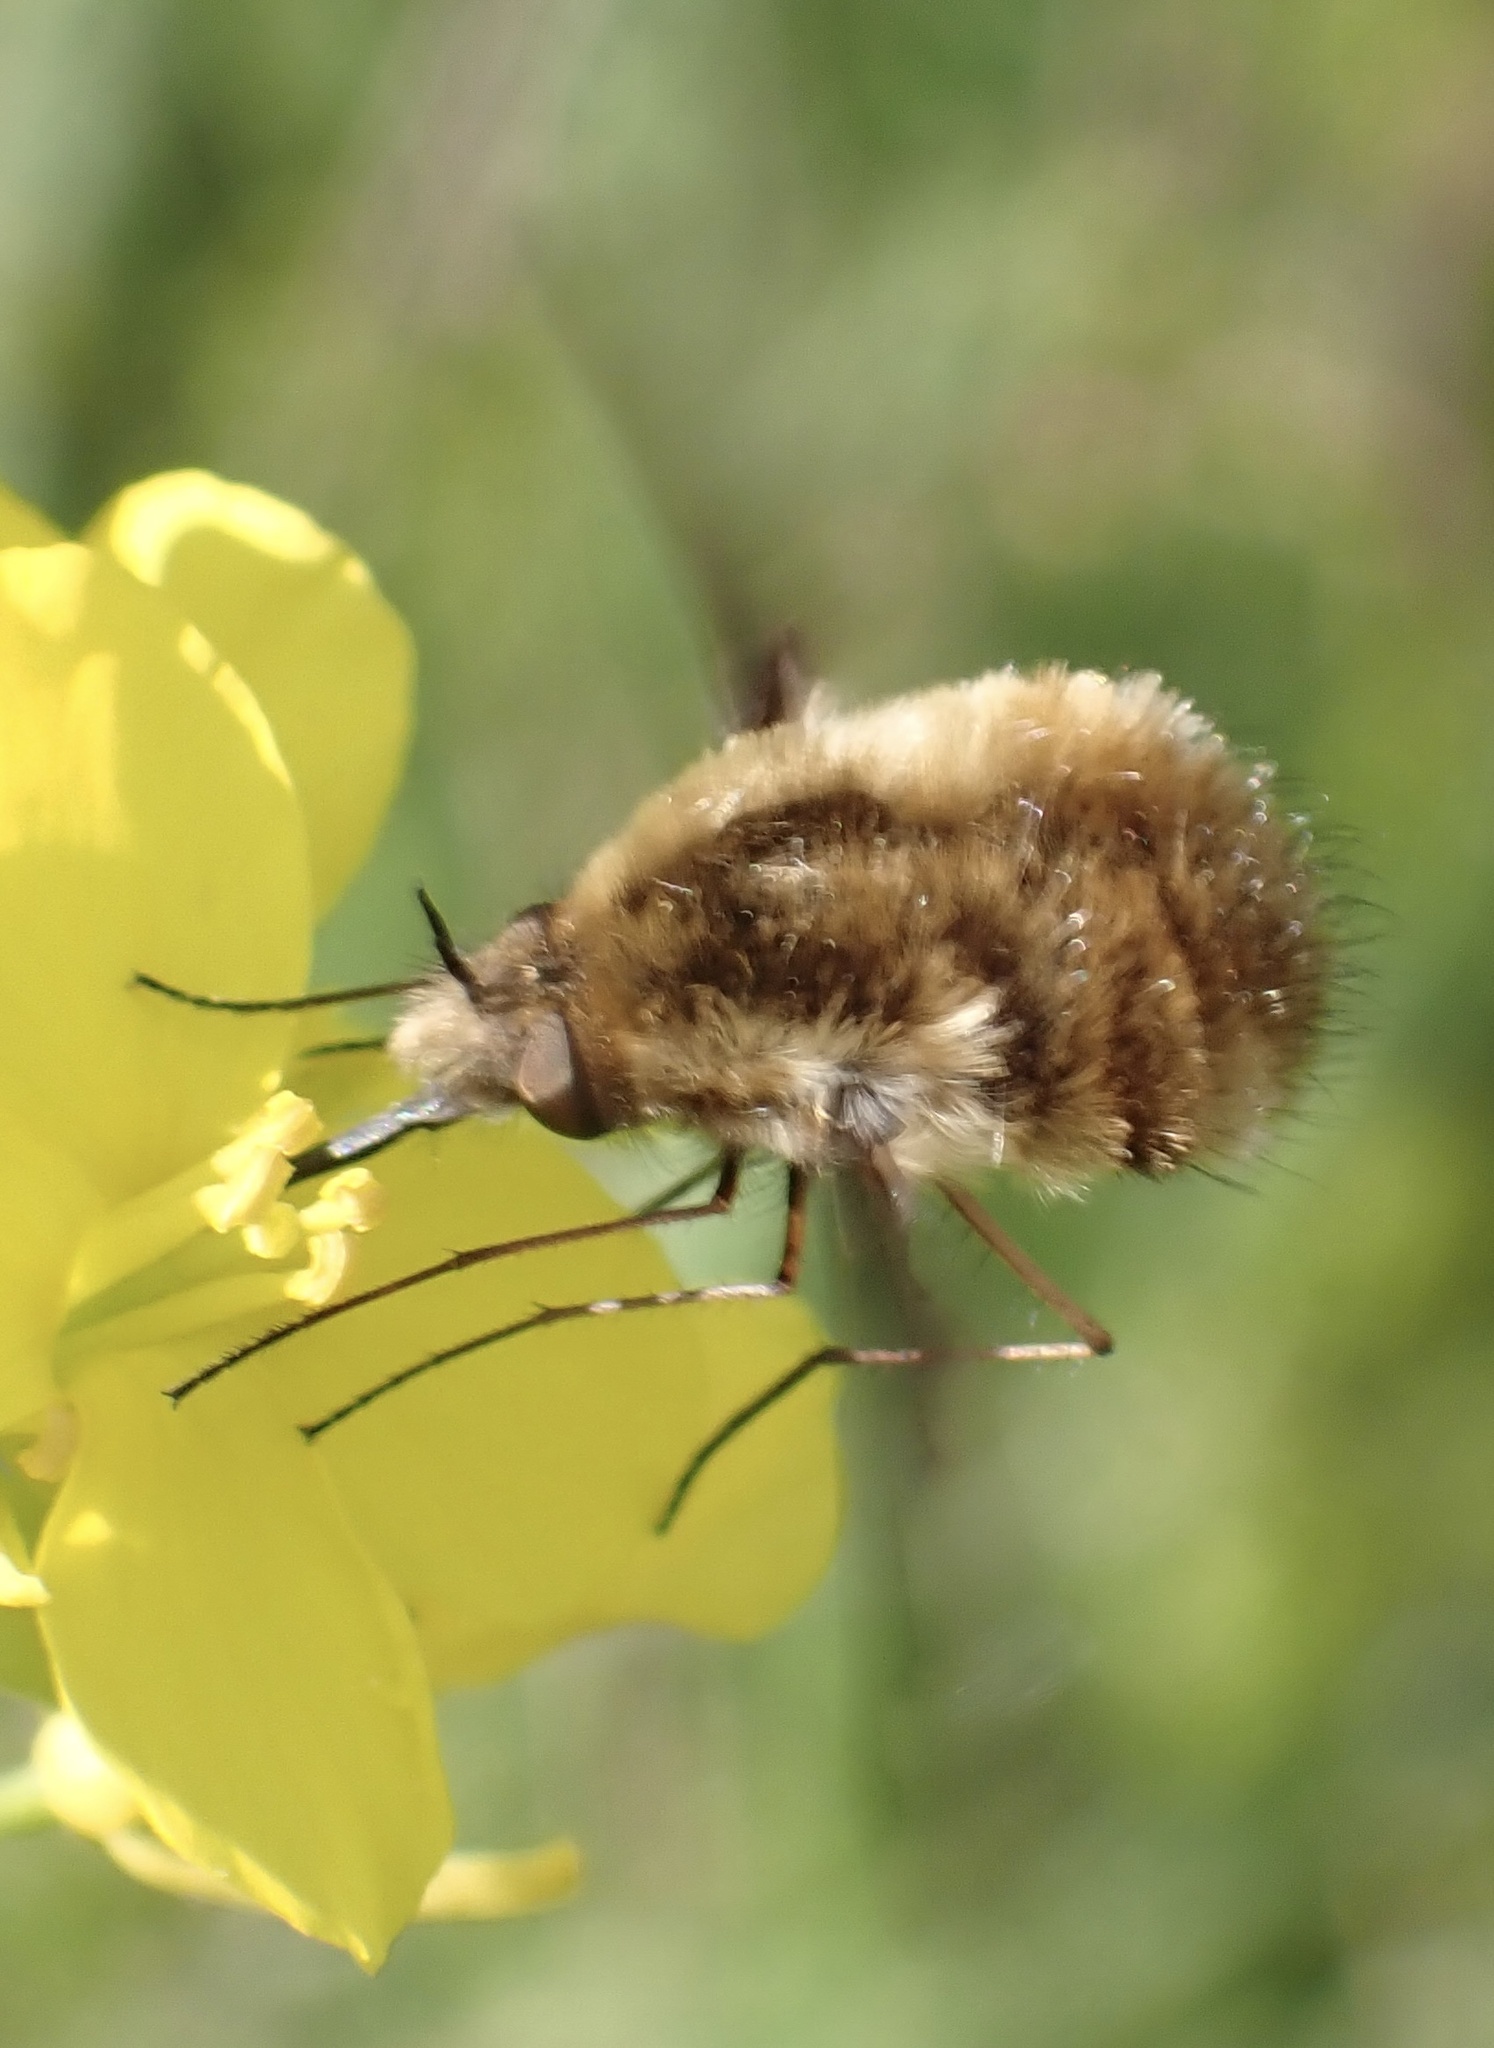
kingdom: Animalia
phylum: Arthropoda
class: Insecta
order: Diptera
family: Bombyliidae
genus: Bombylius
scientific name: Bombylius major
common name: Bee fly
